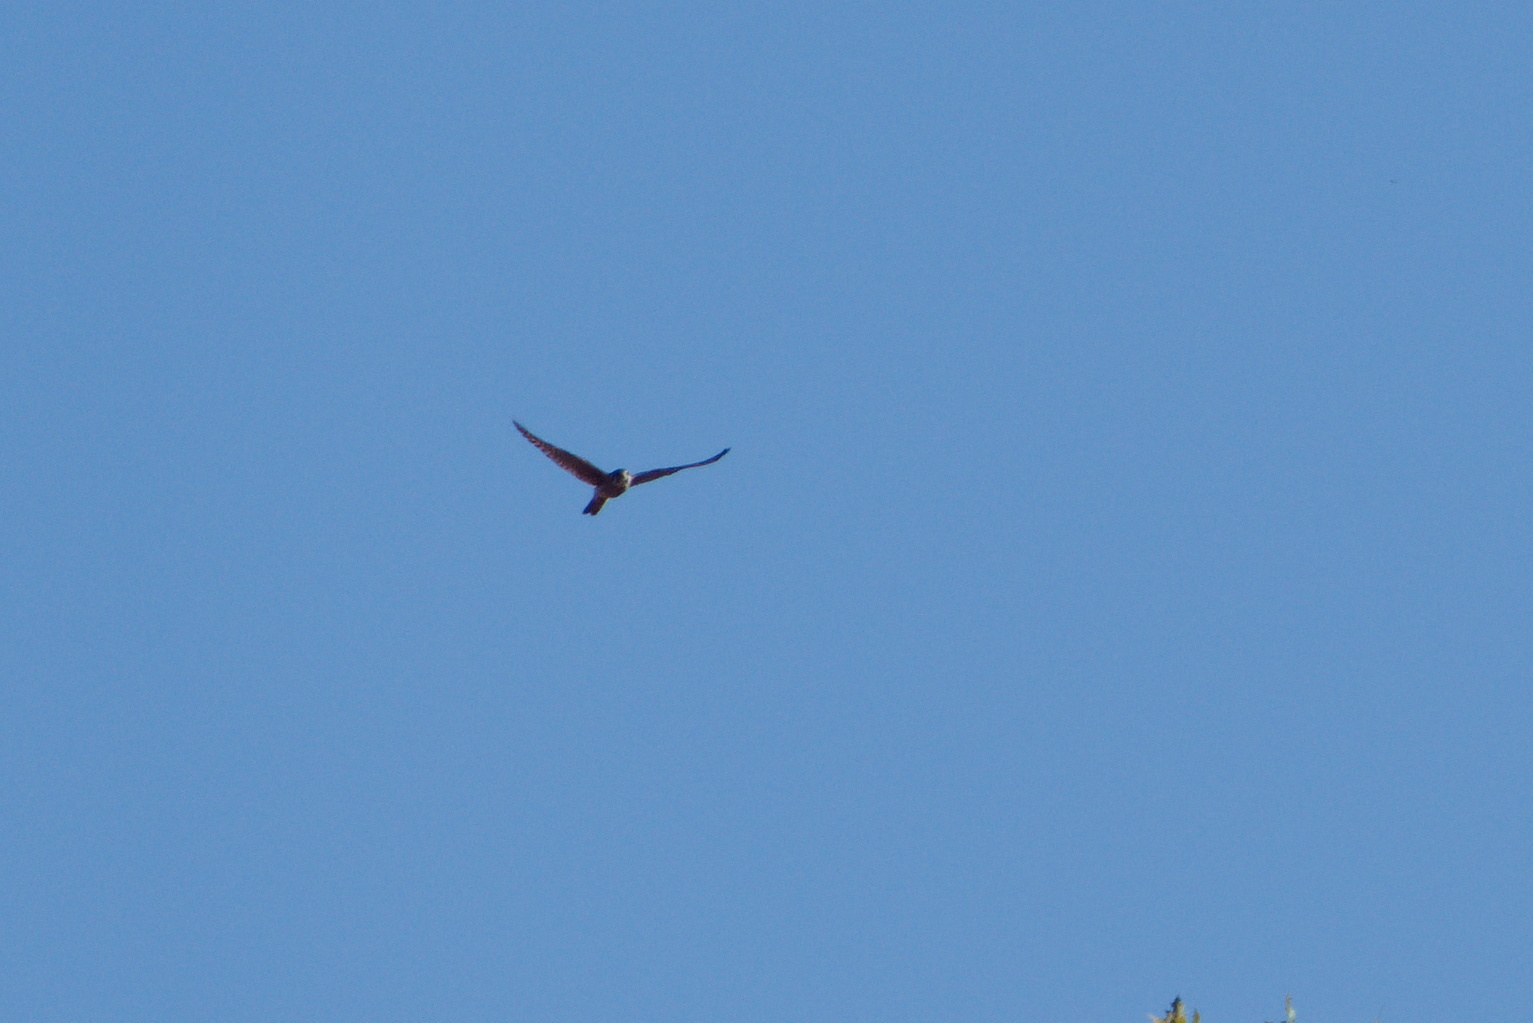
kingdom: Animalia
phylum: Chordata
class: Aves
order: Falconiformes
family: Falconidae
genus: Falco
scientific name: Falco sparverius
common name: American kestrel
